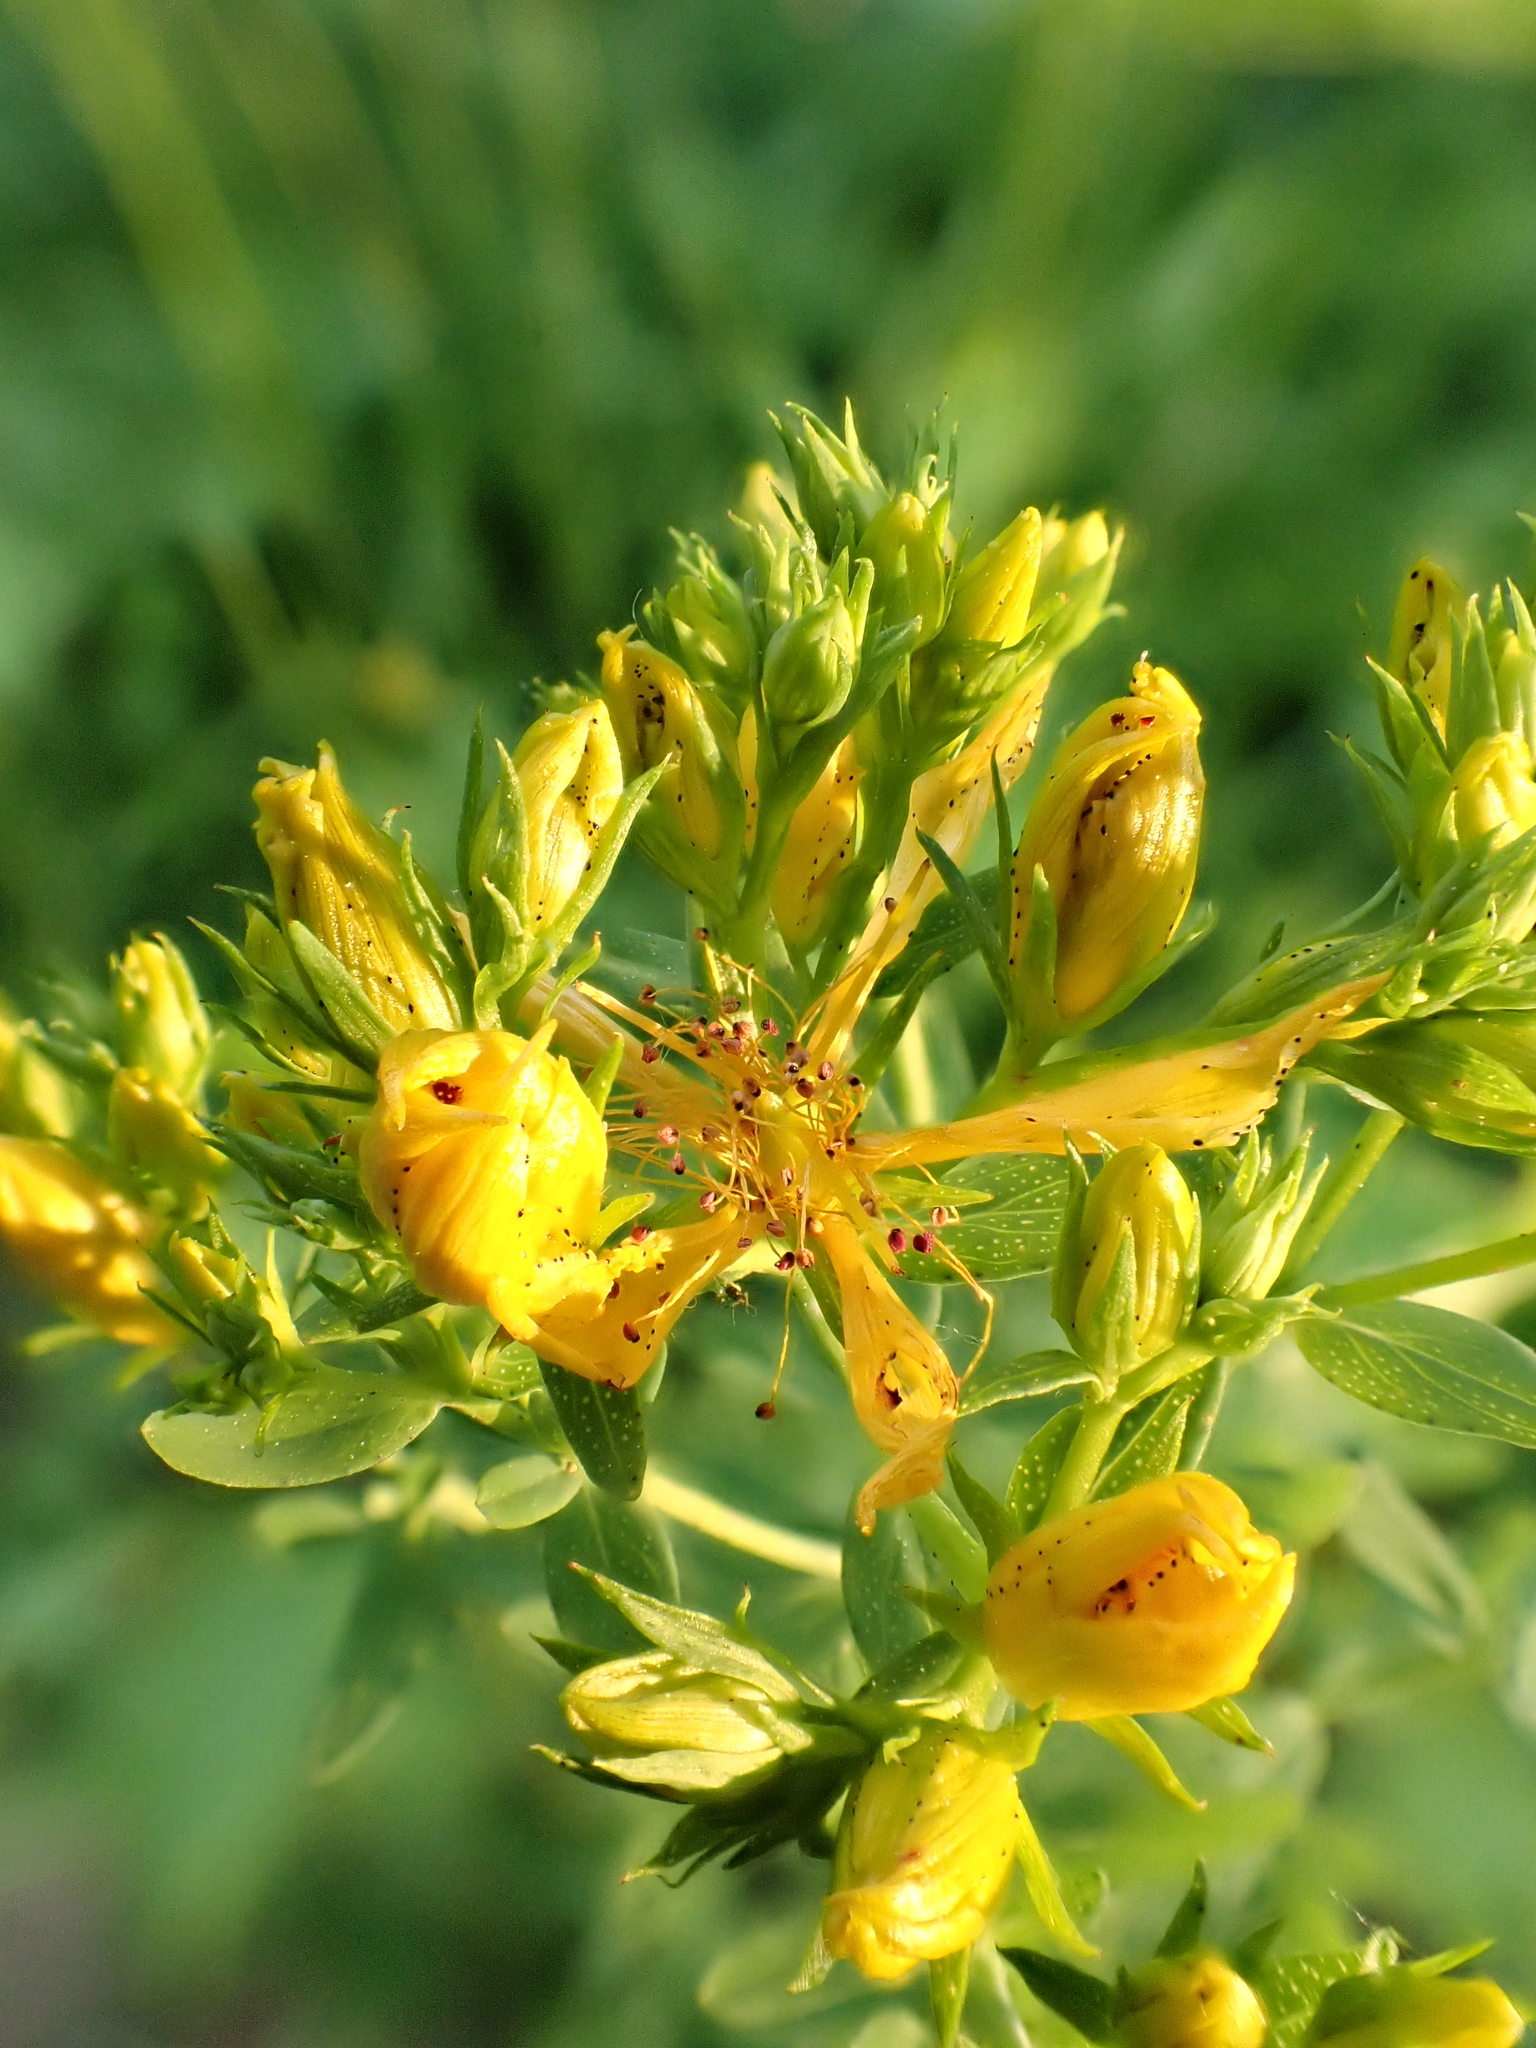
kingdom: Plantae
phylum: Tracheophyta
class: Magnoliopsida
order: Malpighiales
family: Hypericaceae
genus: Hypericum
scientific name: Hypericum perforatum
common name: Common st. johnswort
